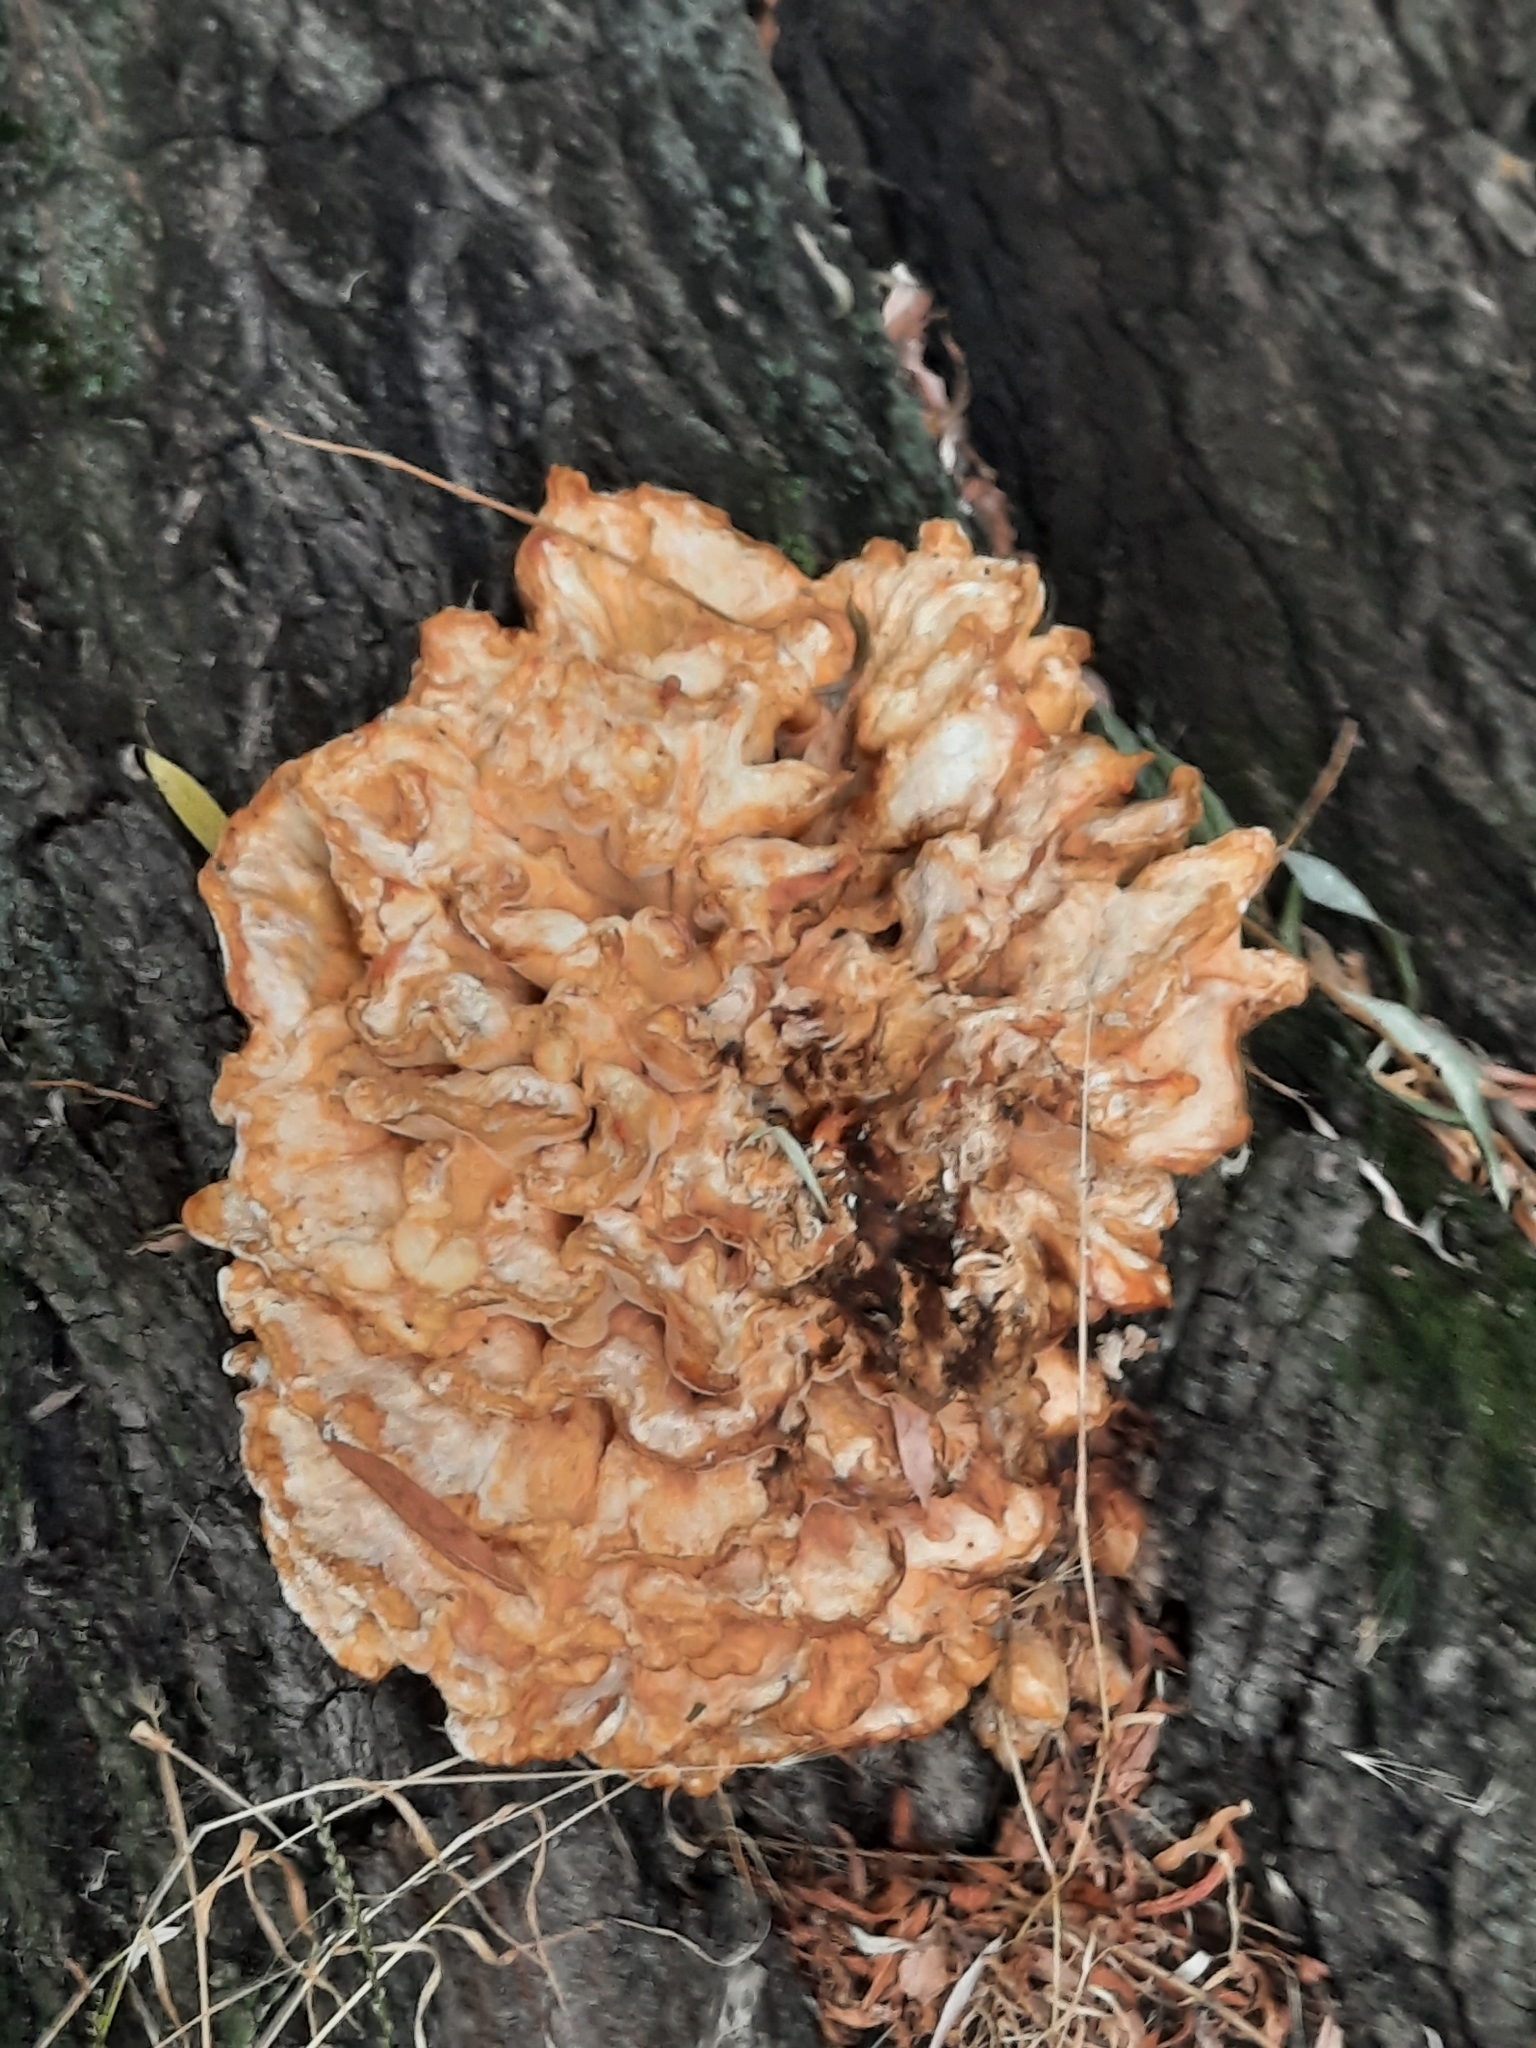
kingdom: Fungi
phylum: Basidiomycota
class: Agaricomycetes
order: Polyporales
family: Laetiporaceae
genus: Laetiporus
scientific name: Laetiporus sulphureus
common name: Chicken of the woods
